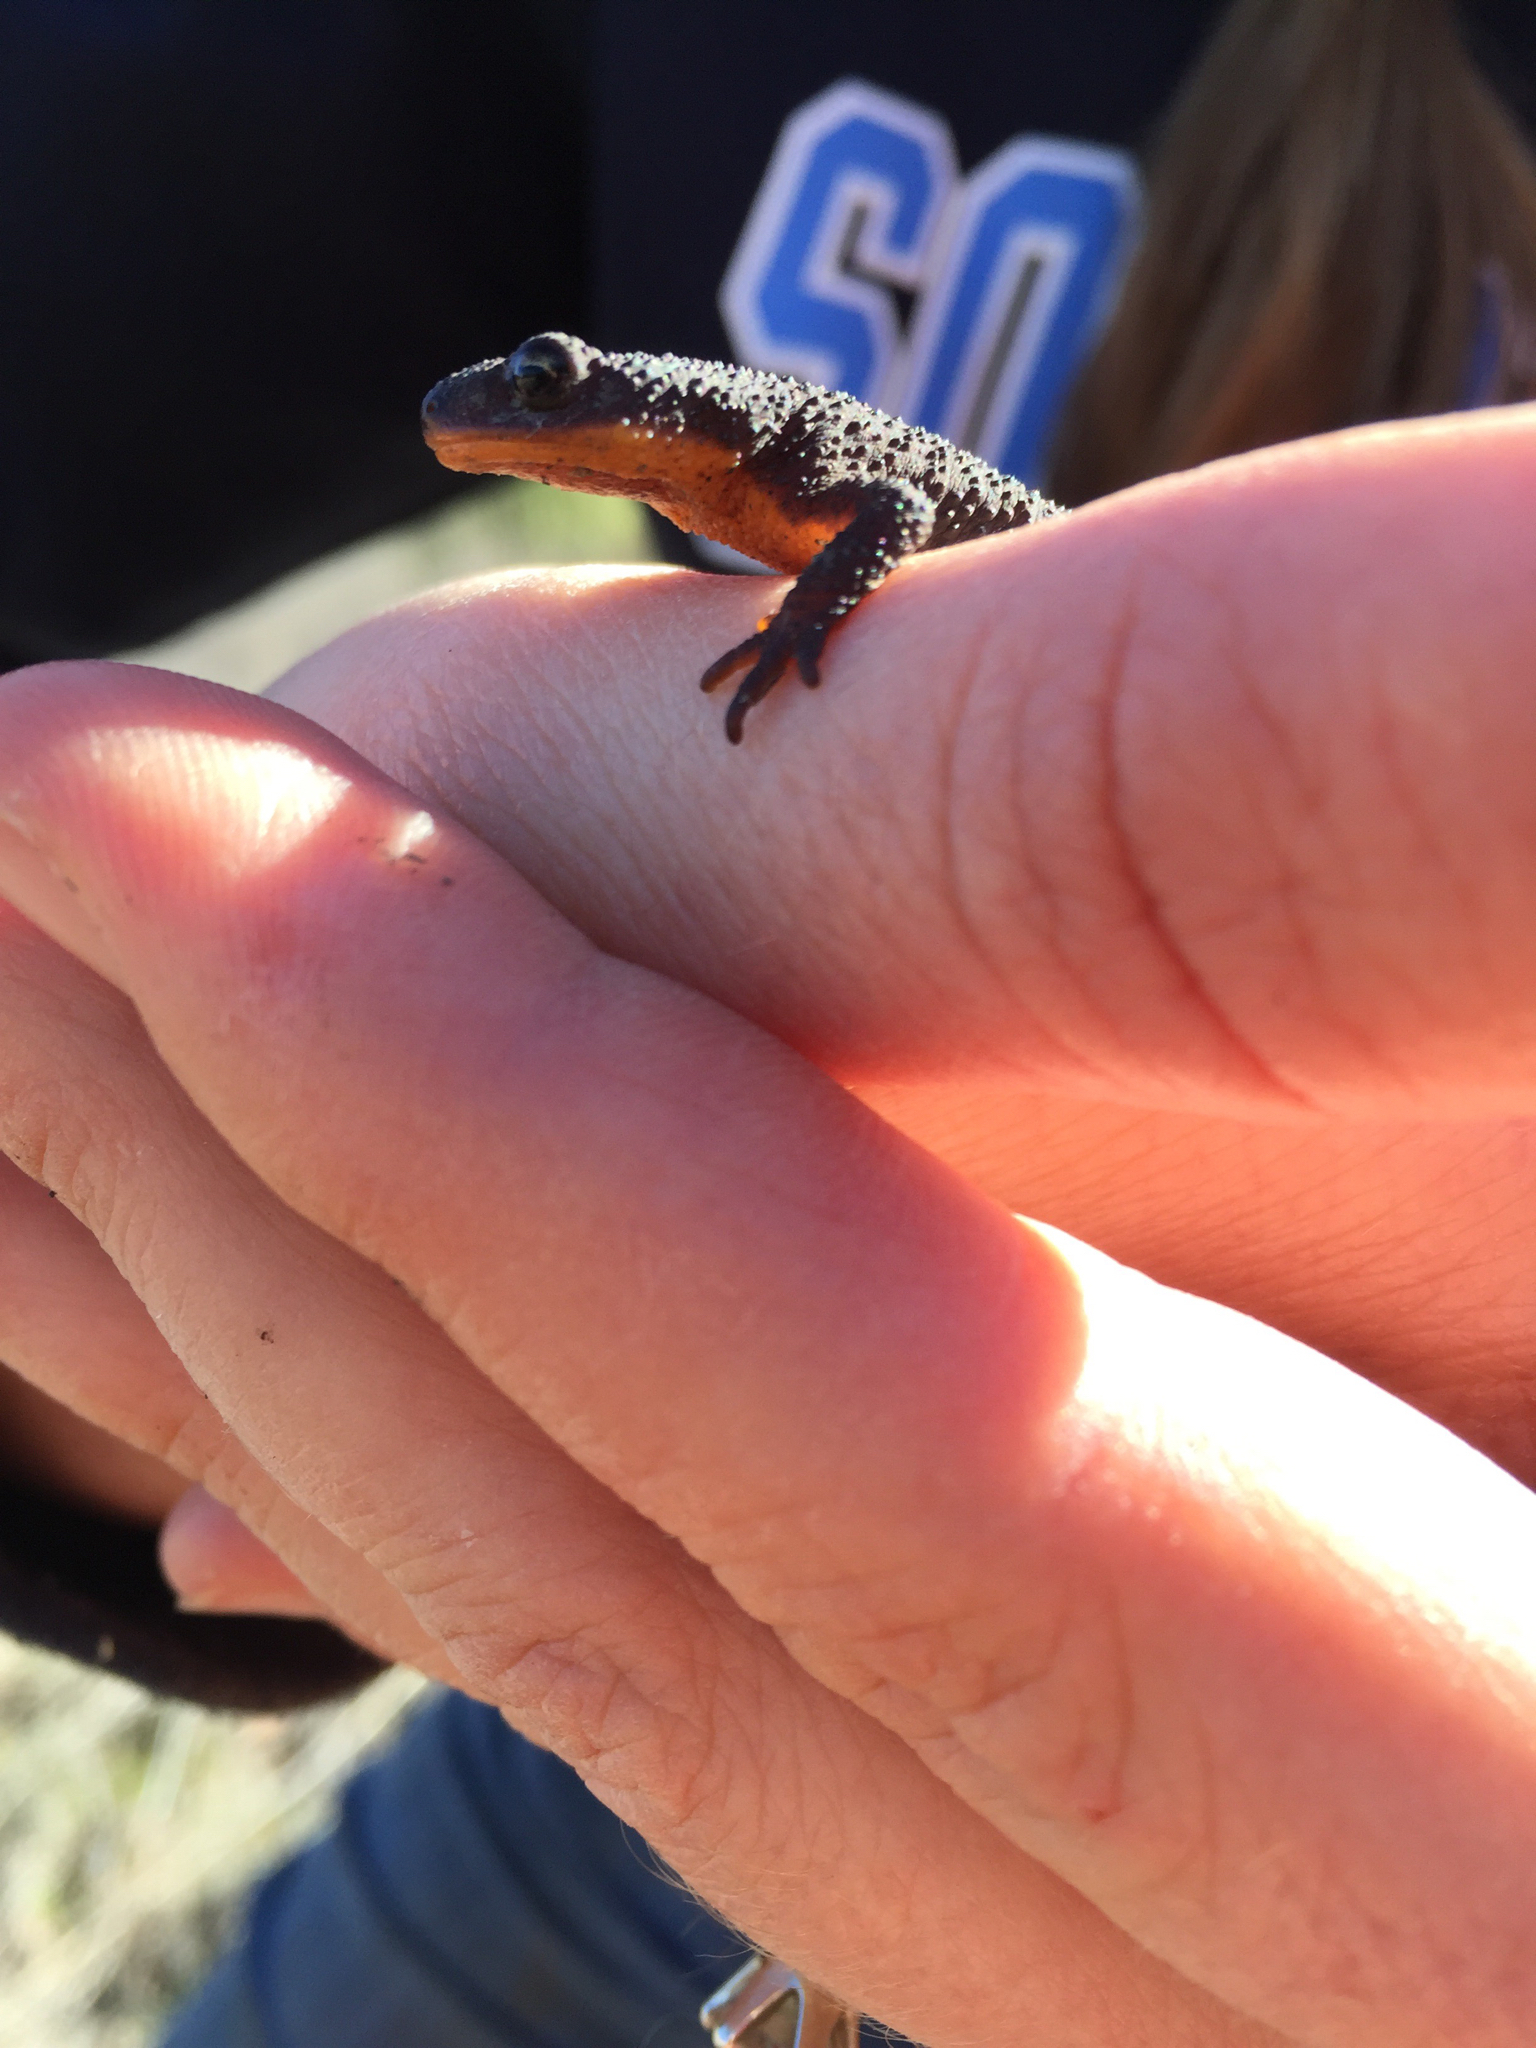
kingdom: Animalia
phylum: Chordata
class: Amphibia
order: Caudata
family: Salamandridae
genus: Taricha
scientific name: Taricha granulosa
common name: Roughskin newt
